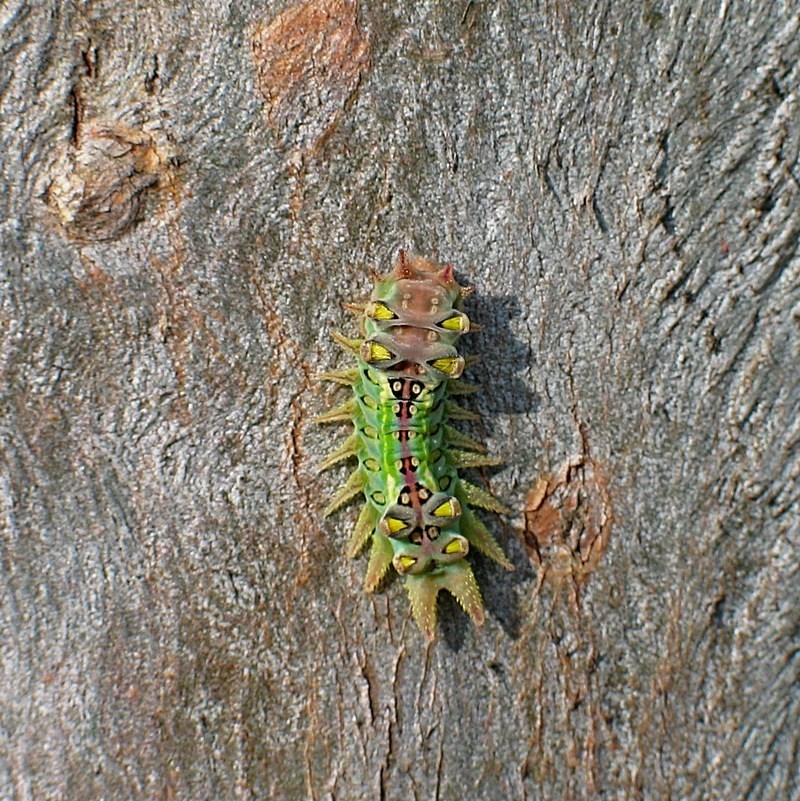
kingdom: Animalia
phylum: Arthropoda
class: Insecta
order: Lepidoptera
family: Limacodidae
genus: Doratifera
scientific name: Doratifera oxleyi
